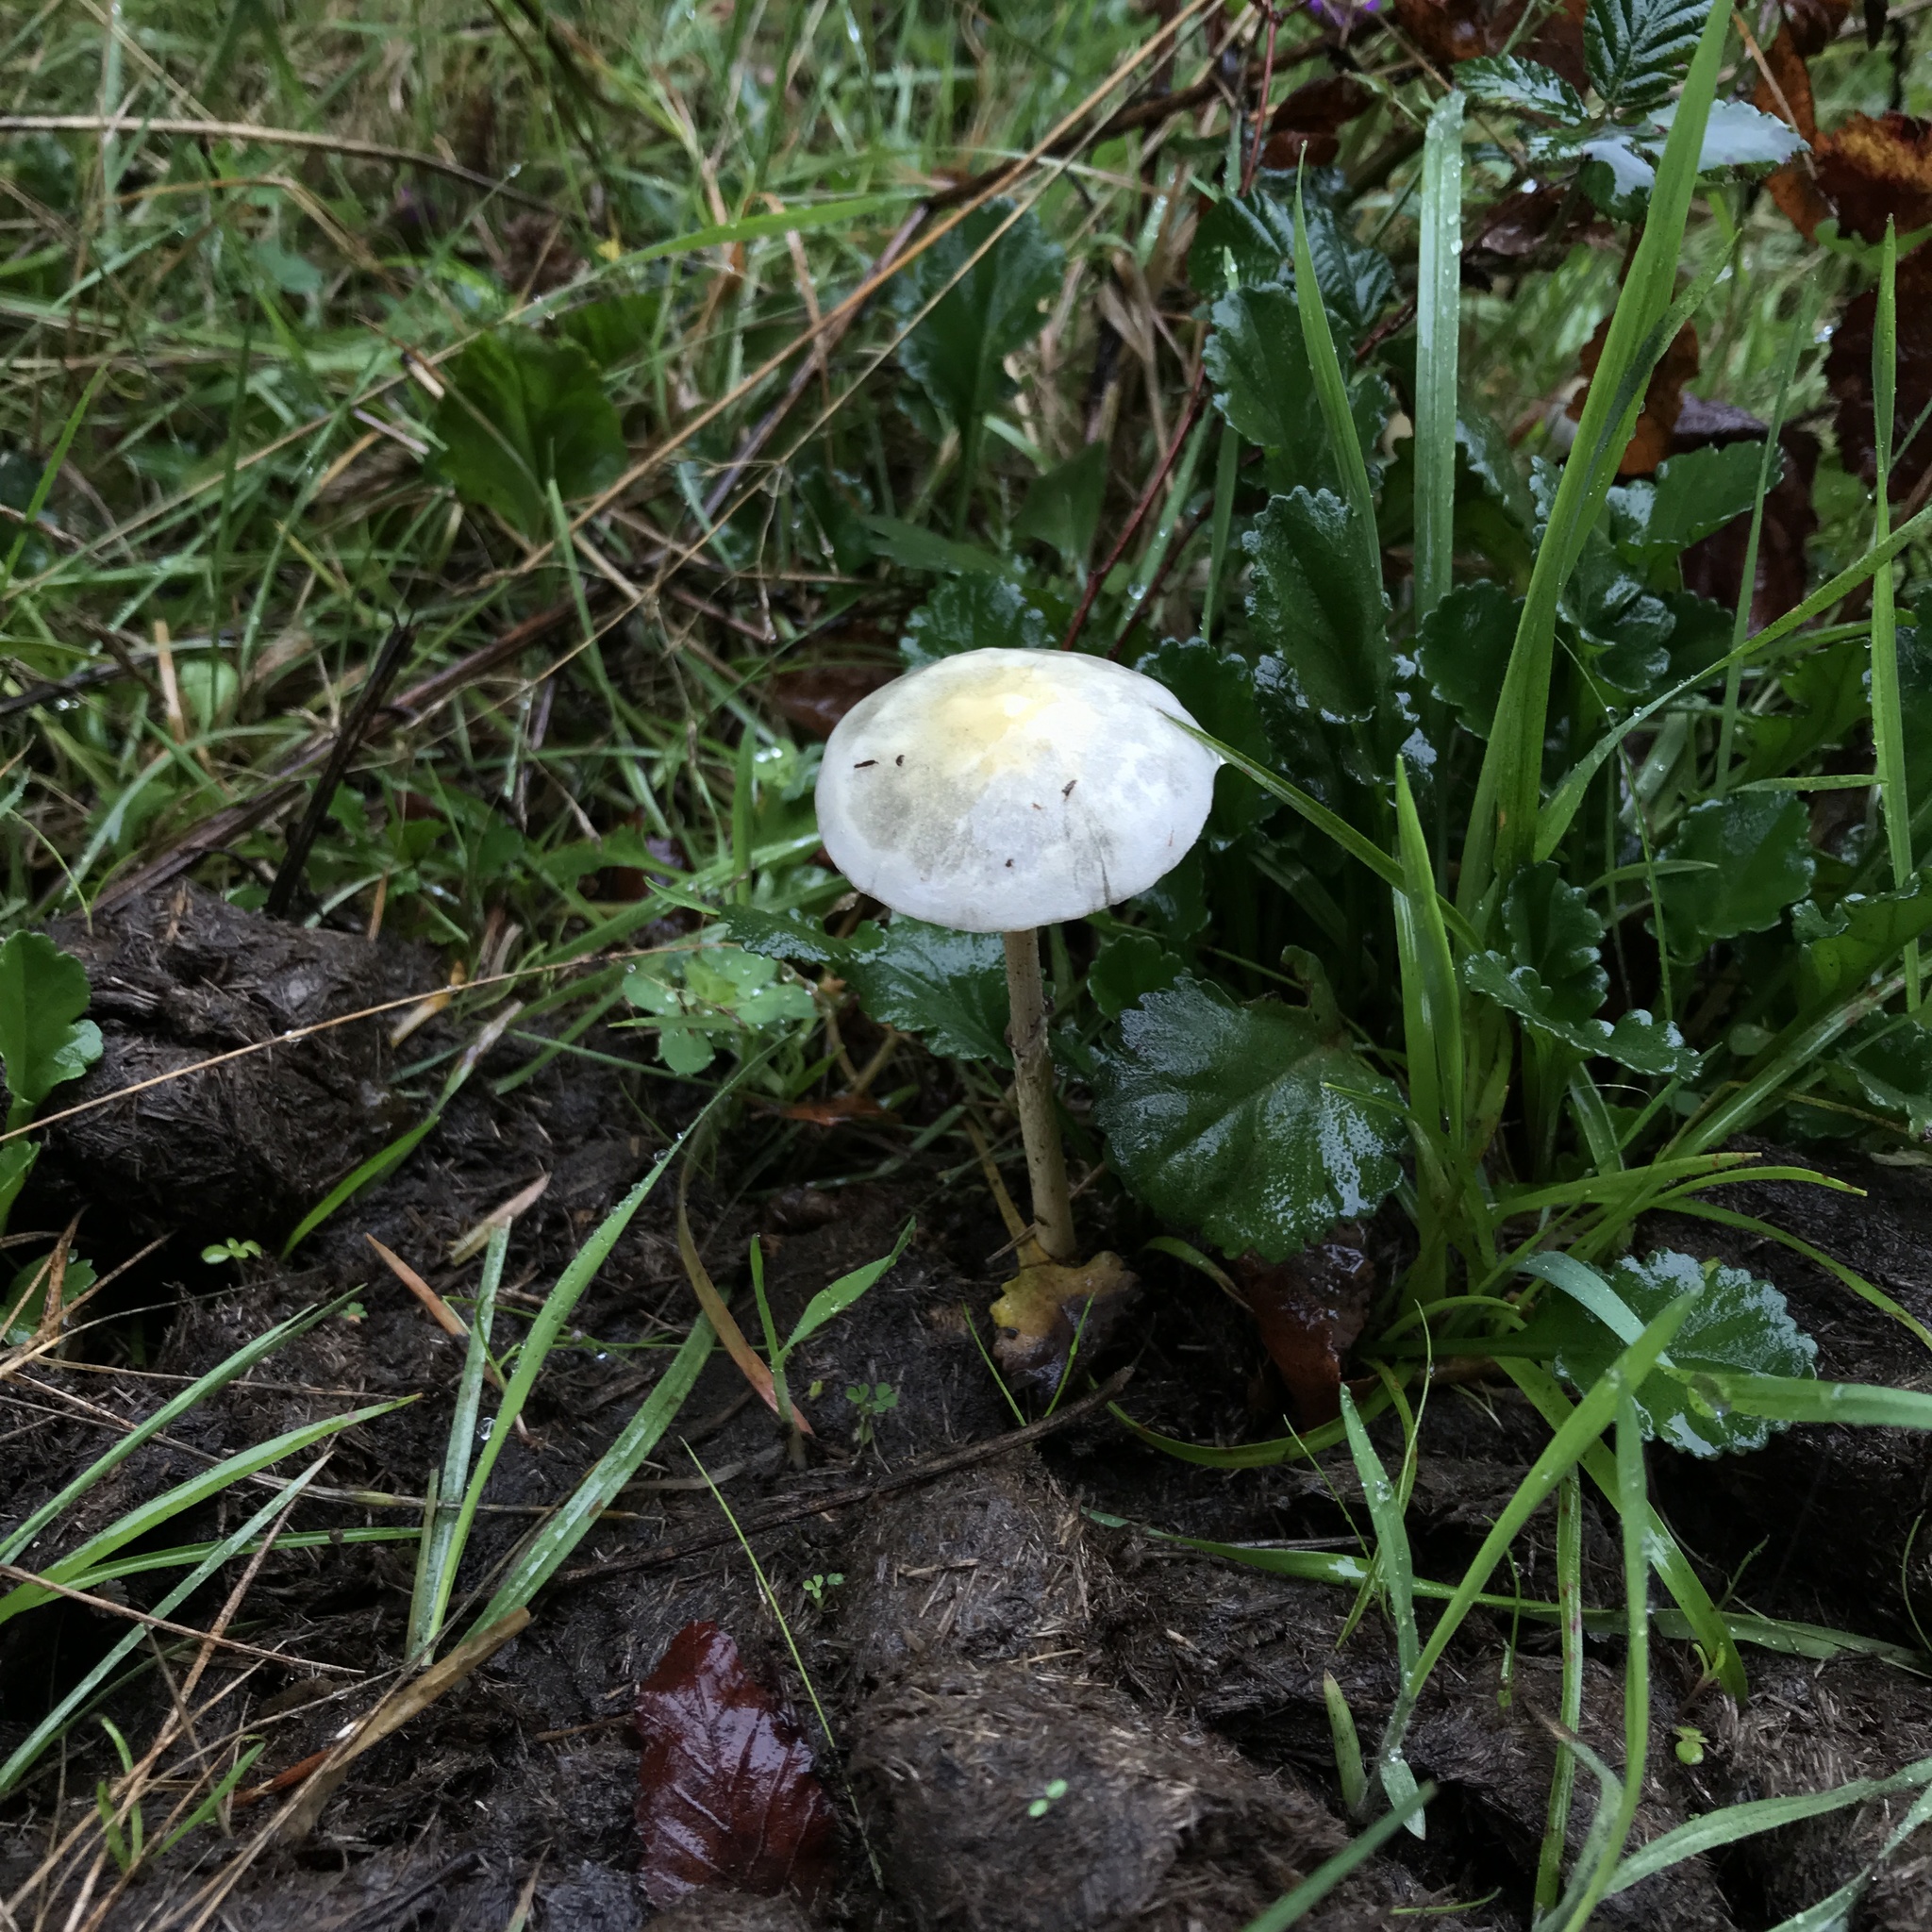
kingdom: Fungi
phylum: Basidiomycota
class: Agaricomycetes
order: Agaricales
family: Strophariaceae
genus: Protostropharia
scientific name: Protostropharia semiglobata
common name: Dung roundhead
